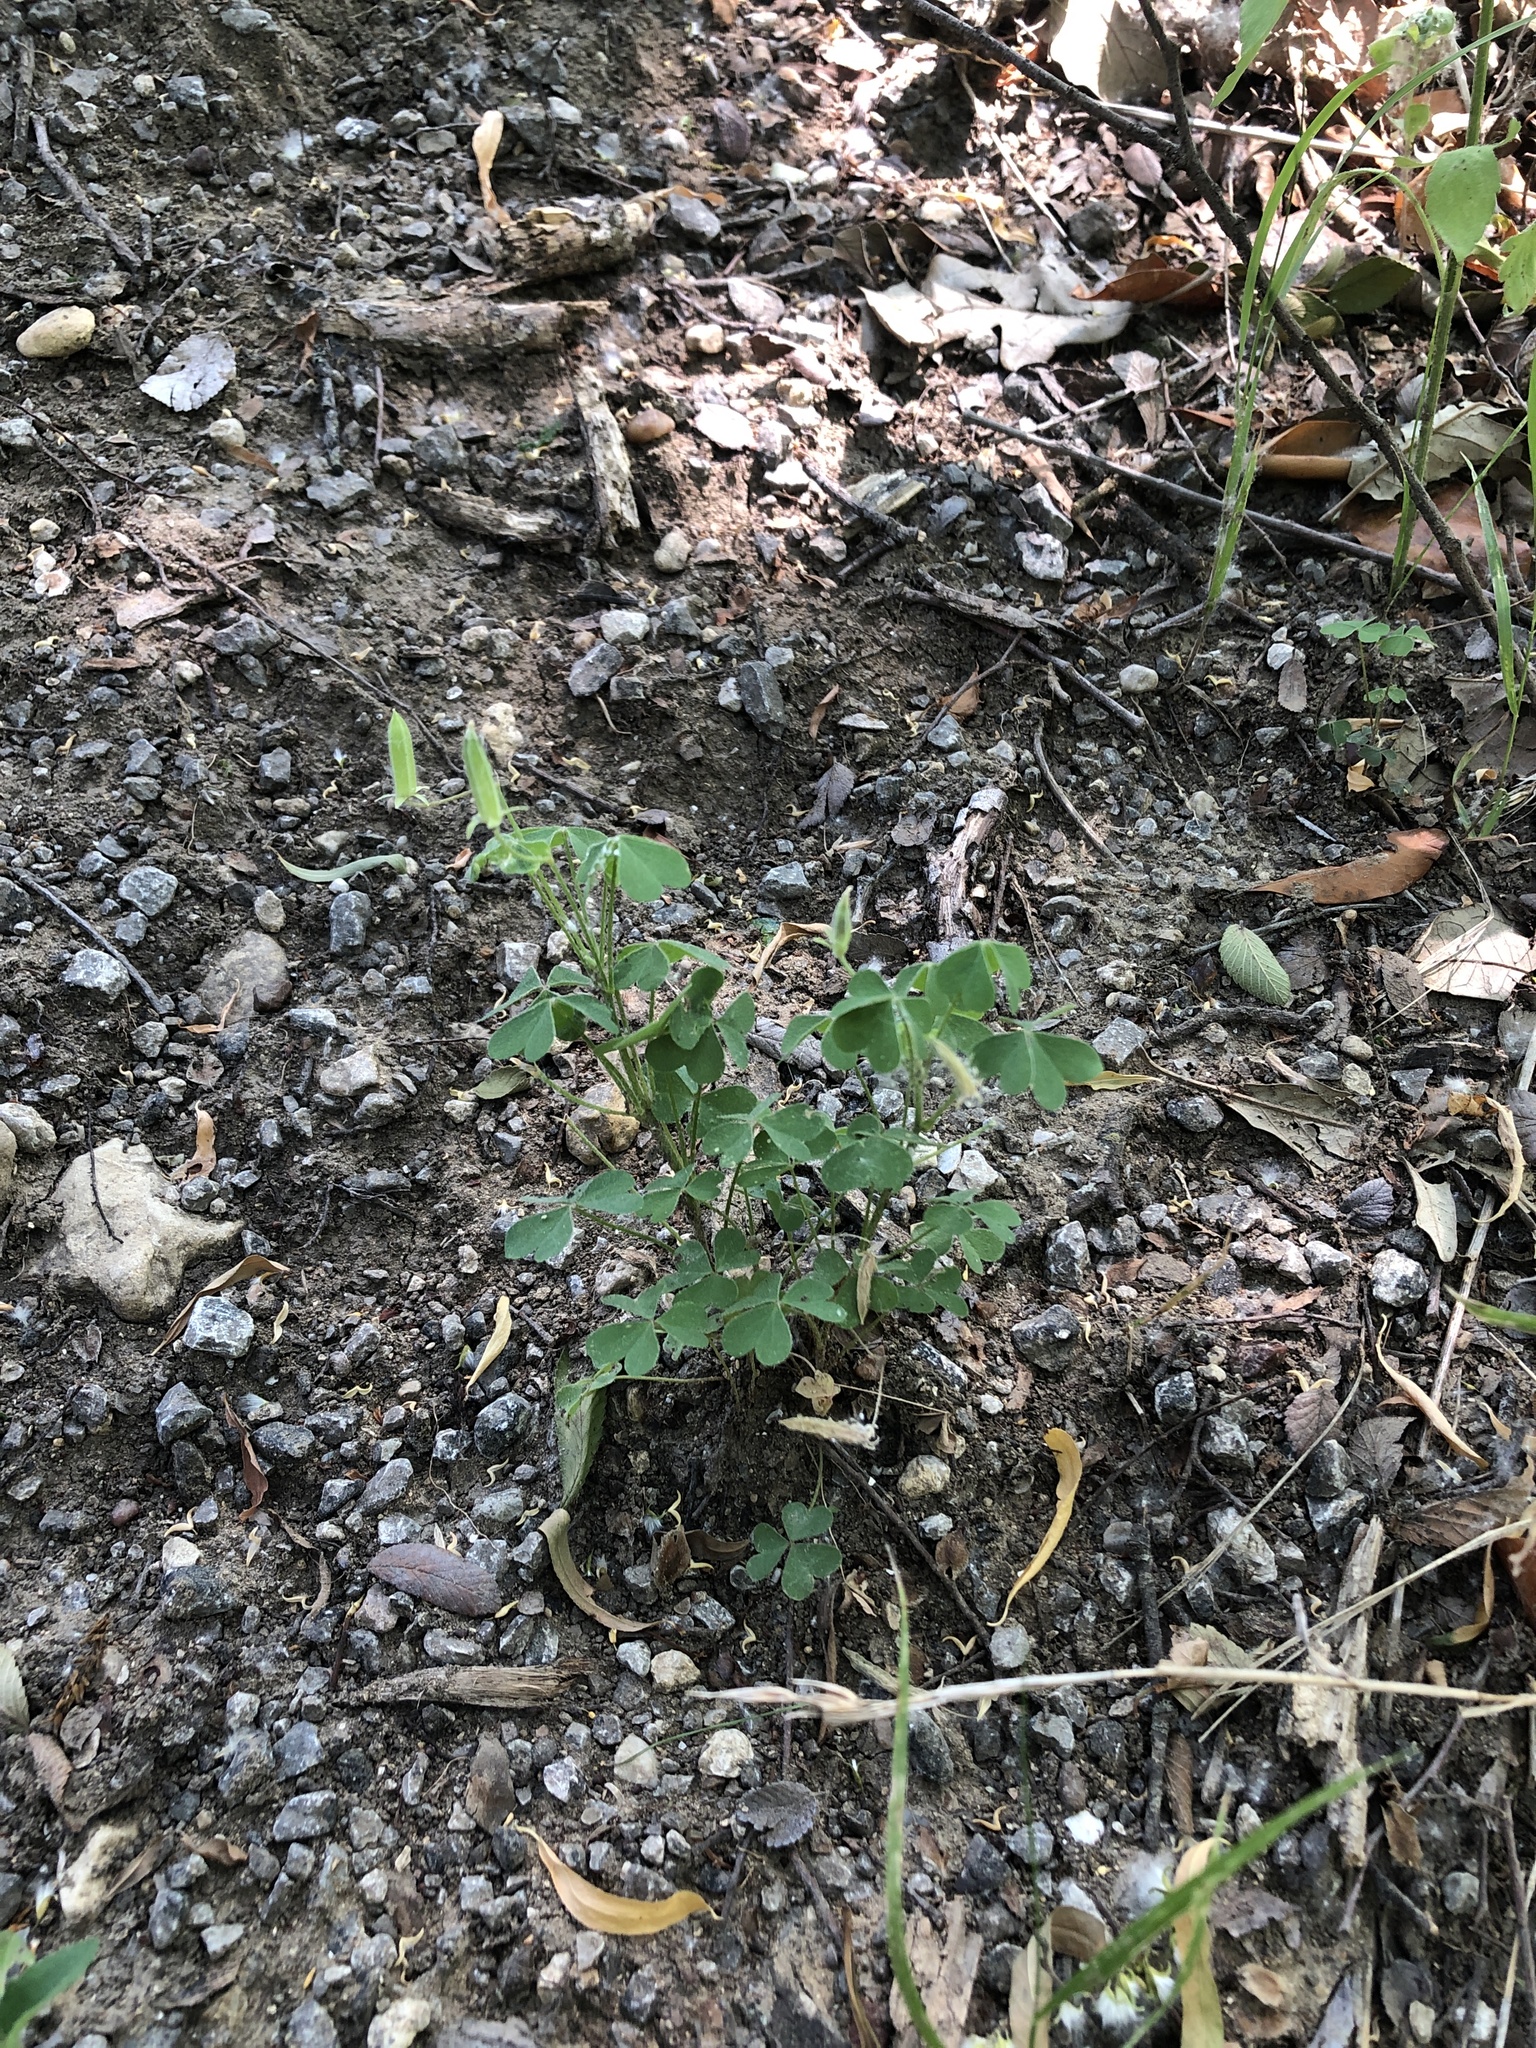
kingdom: Plantae
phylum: Tracheophyta
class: Magnoliopsida
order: Oxalidales
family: Oxalidaceae
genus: Oxalis
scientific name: Oxalis dillenii
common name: Sussex yellow-sorrel
